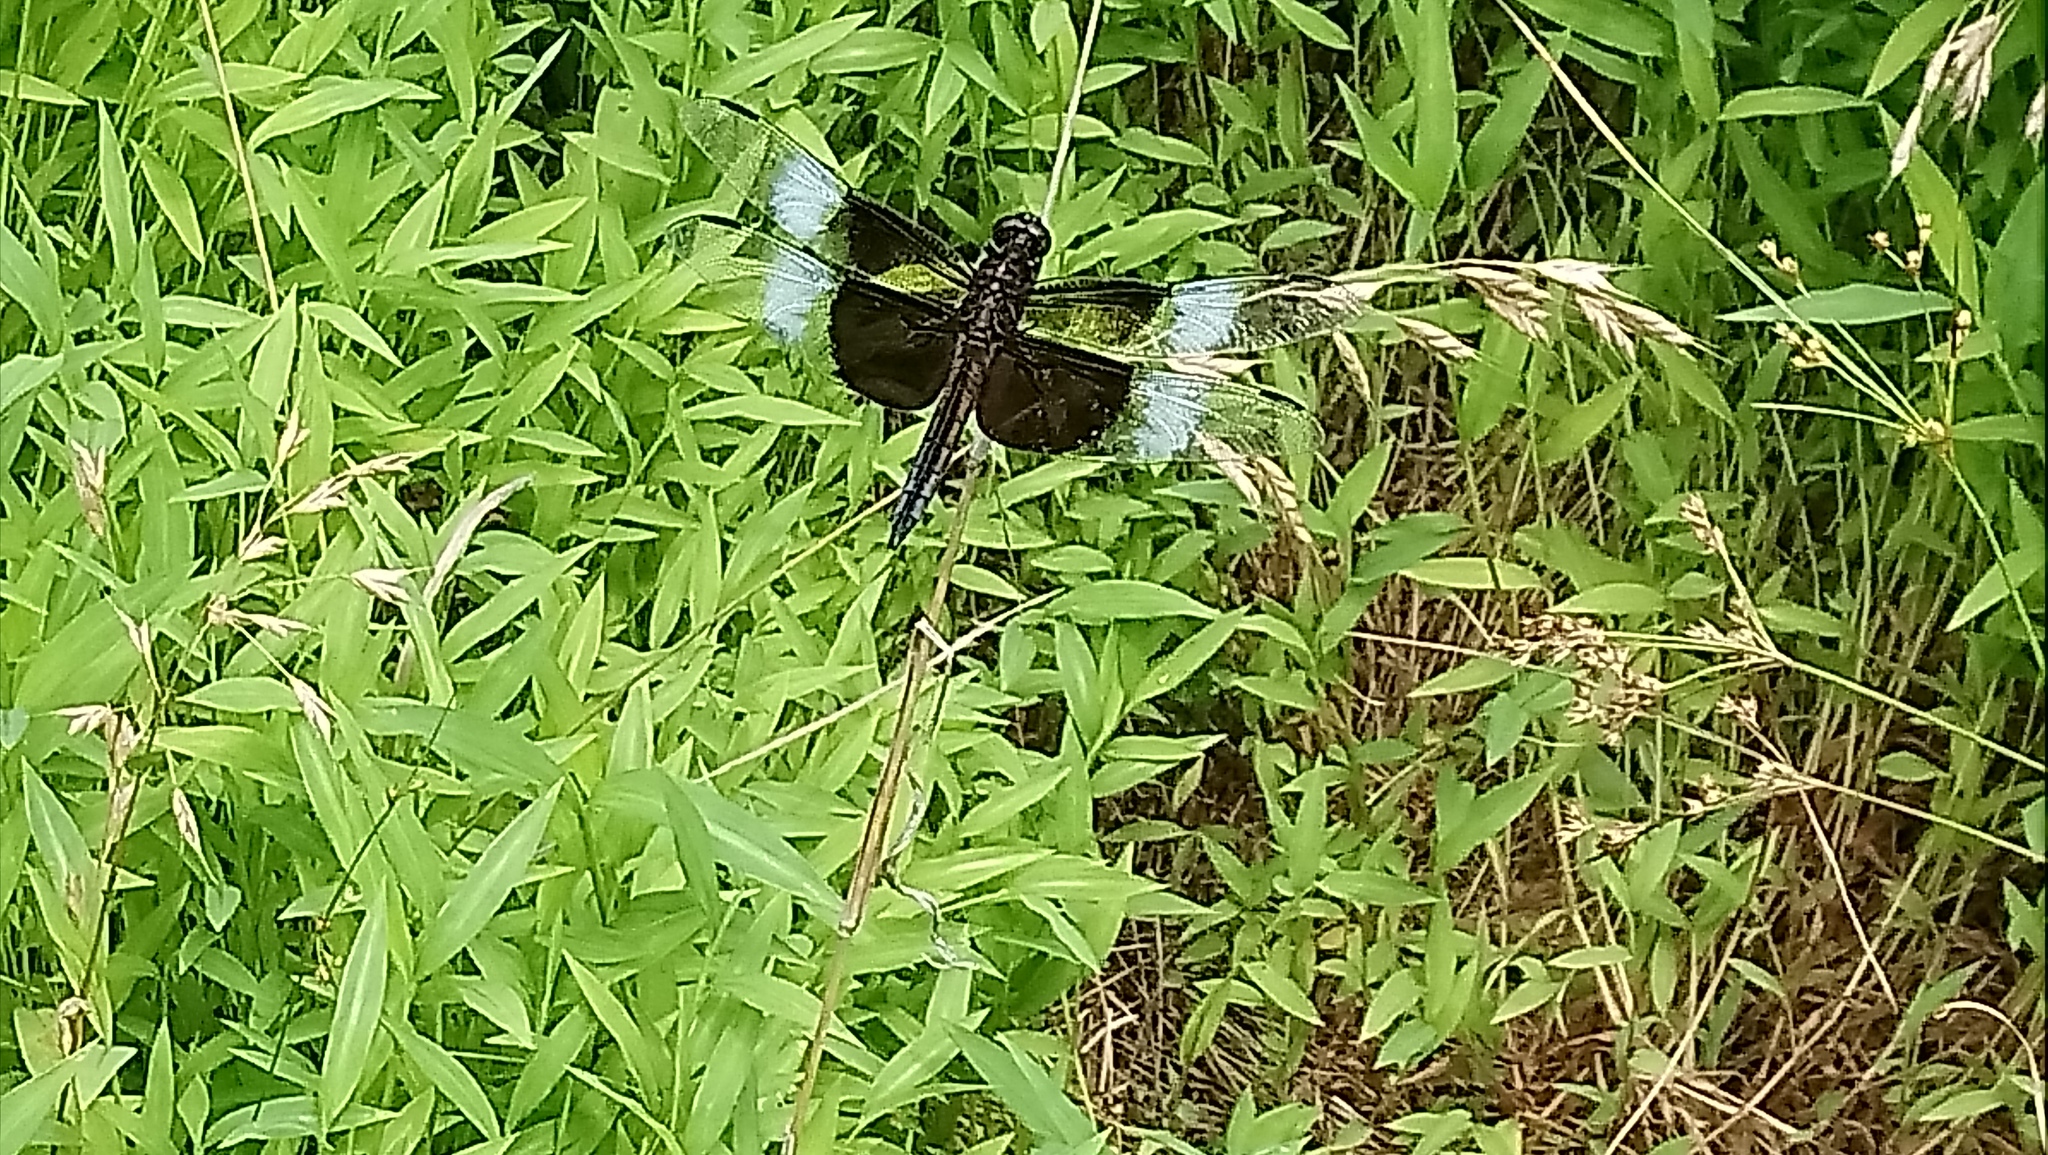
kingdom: Animalia
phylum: Arthropoda
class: Insecta
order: Odonata
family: Libellulidae
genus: Libellula
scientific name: Libellula luctuosa
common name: Widow skimmer
